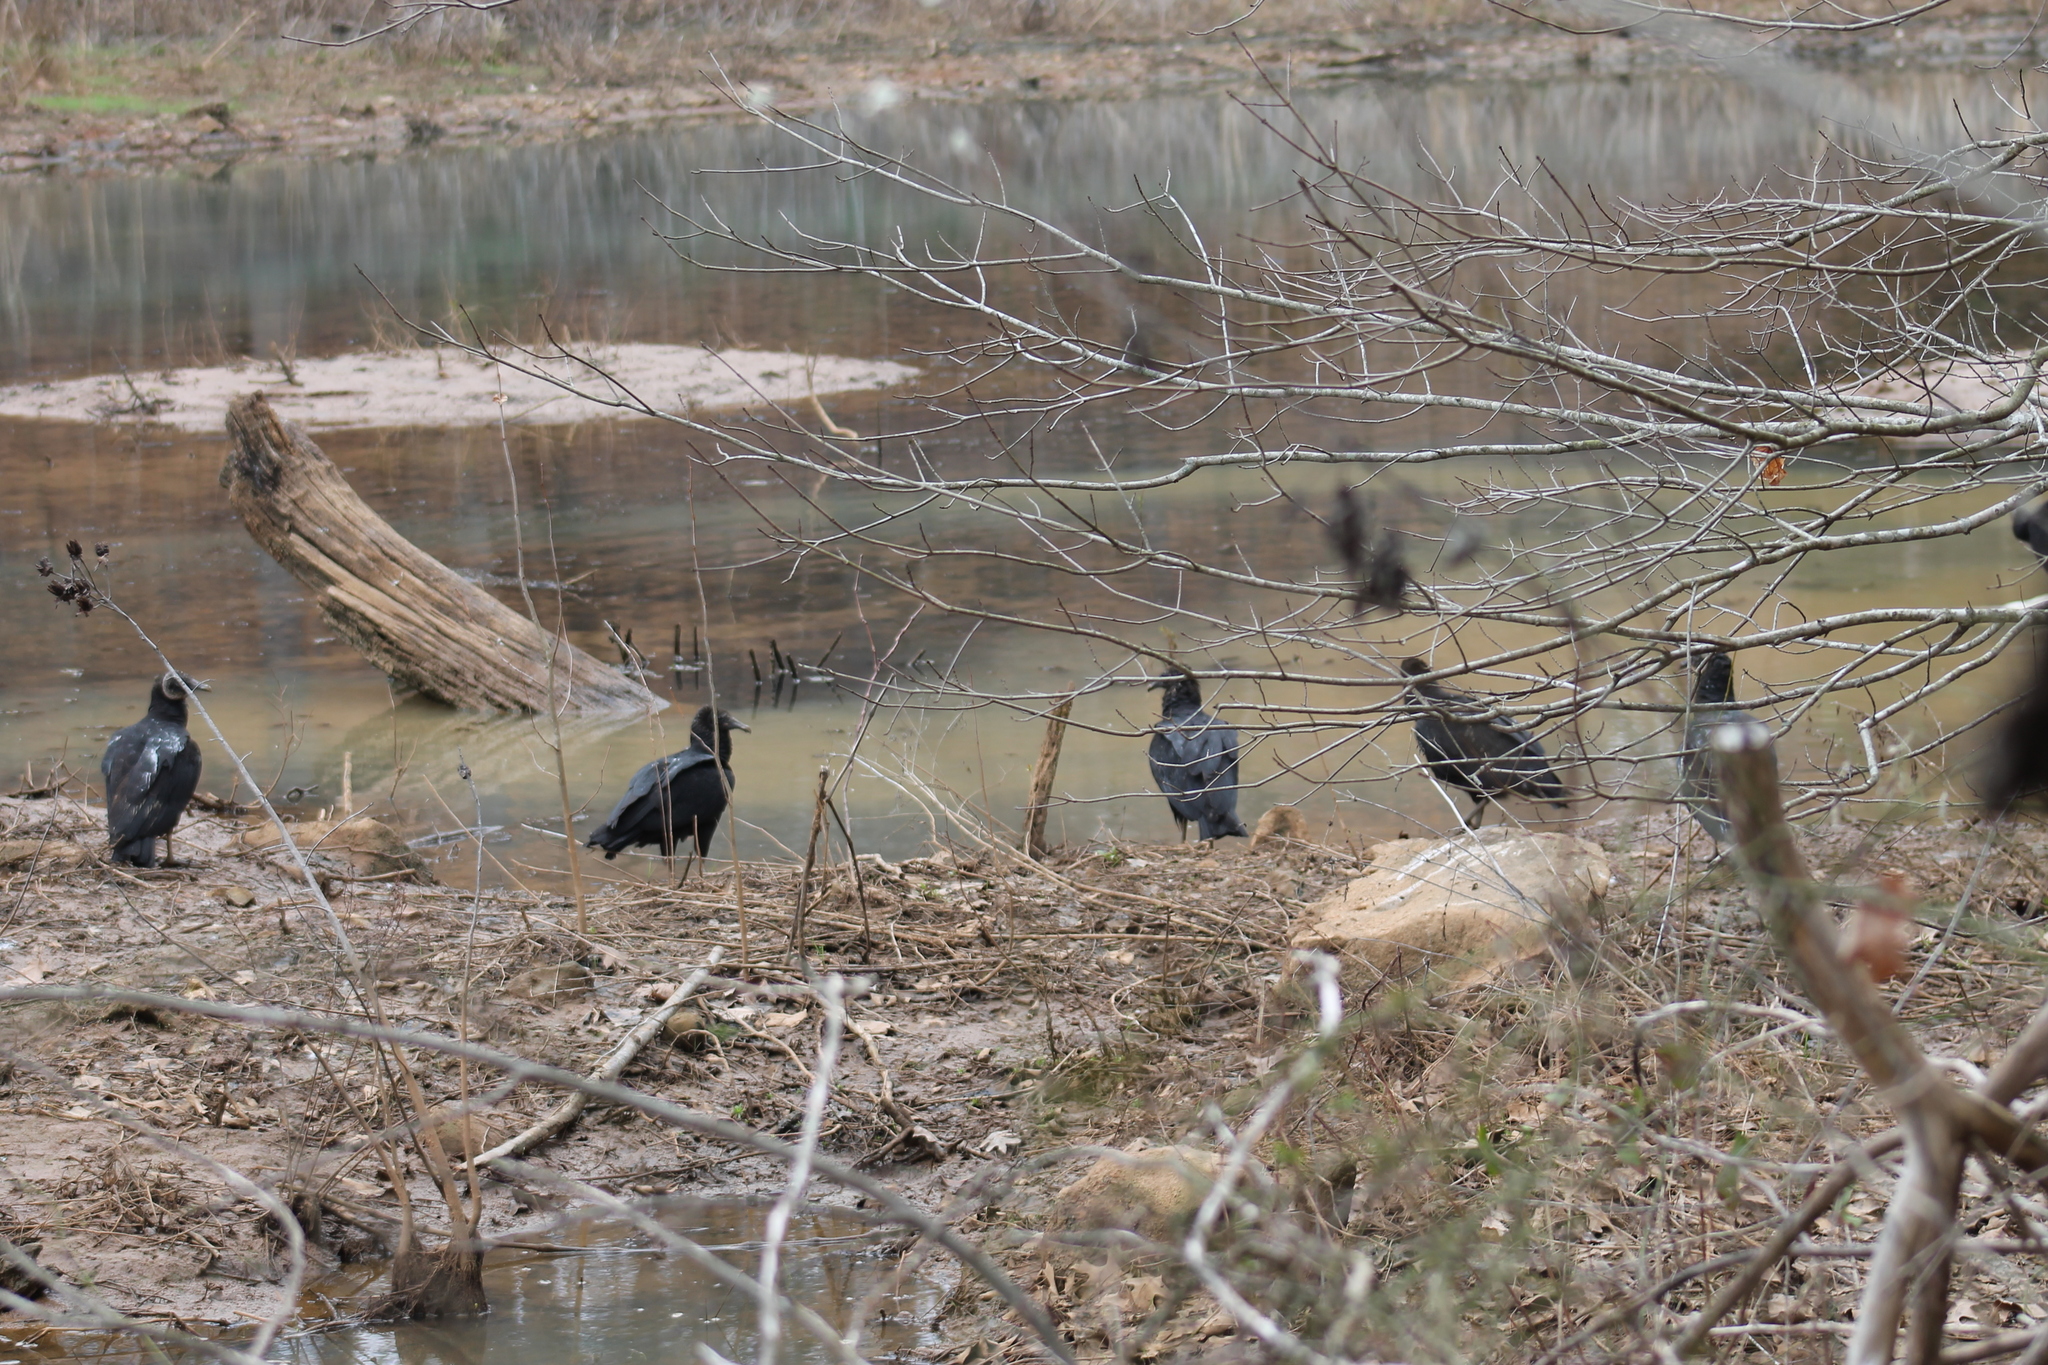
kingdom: Animalia
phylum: Chordata
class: Aves
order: Accipitriformes
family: Cathartidae
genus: Coragyps
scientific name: Coragyps atratus
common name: Black vulture
